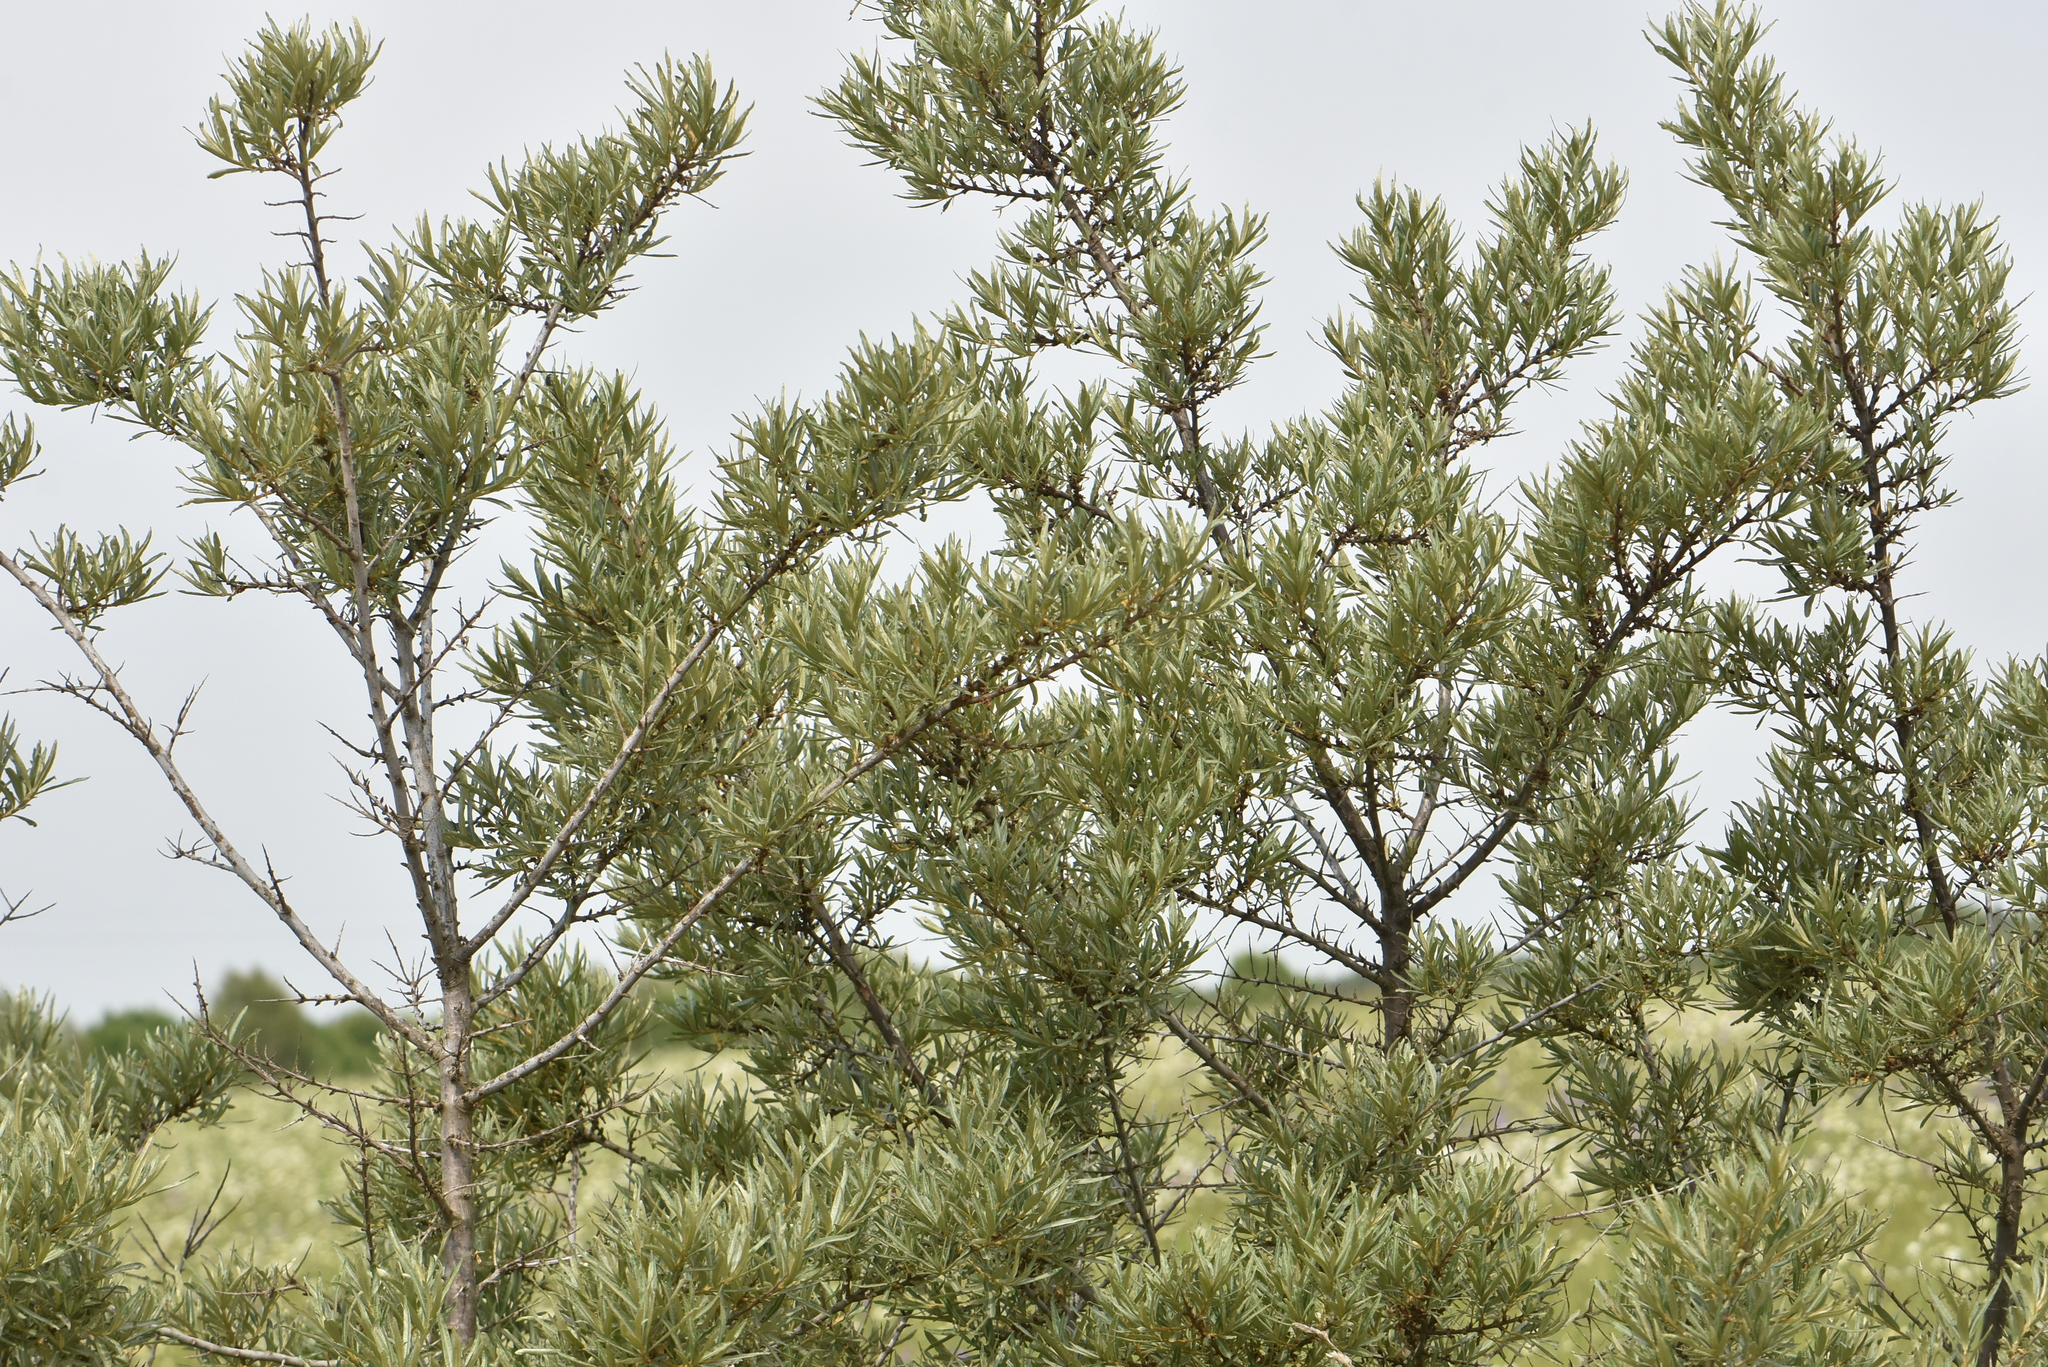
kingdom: Plantae
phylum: Tracheophyta
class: Magnoliopsida
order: Rosales
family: Elaeagnaceae
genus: Hippophae
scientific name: Hippophae rhamnoides
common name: Sea-buckthorn
